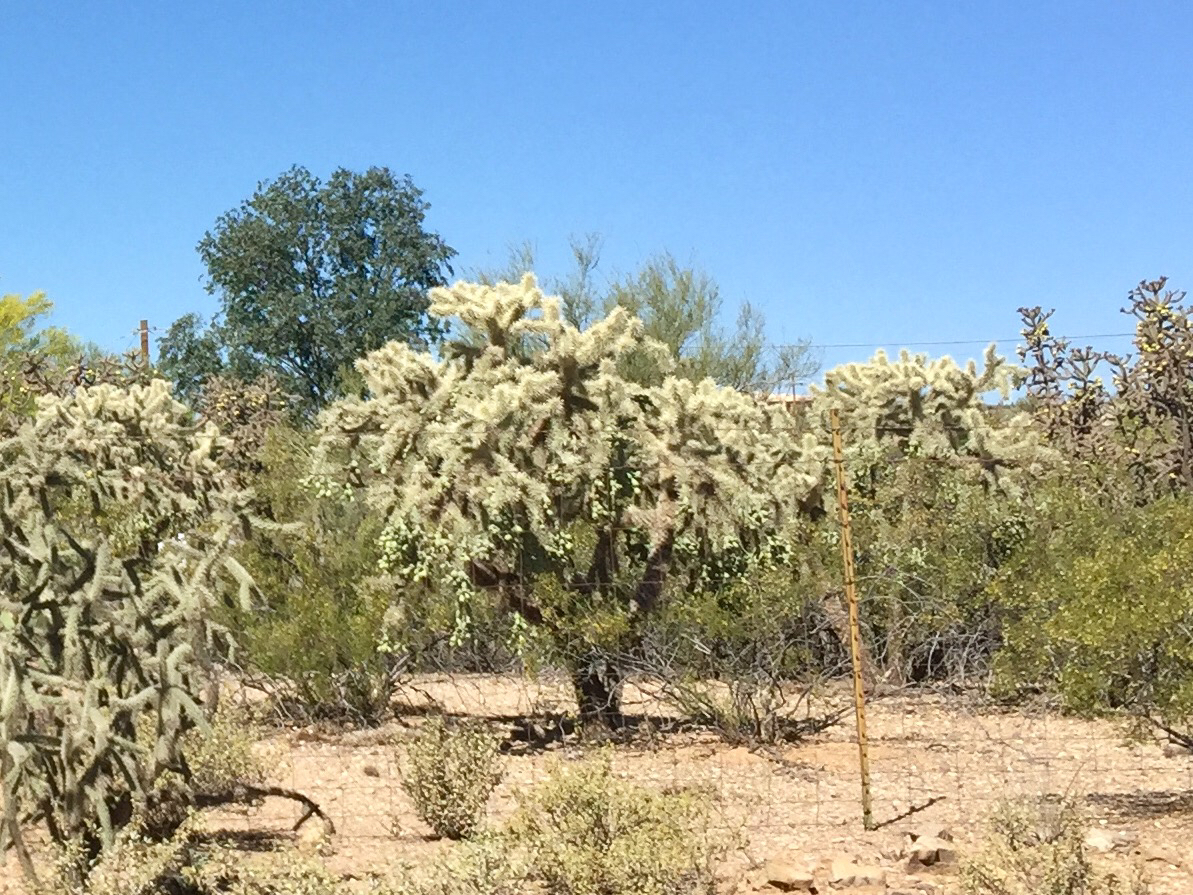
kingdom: Plantae
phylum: Tracheophyta
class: Magnoliopsida
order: Caryophyllales
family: Cactaceae
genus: Cylindropuntia
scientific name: Cylindropuntia fulgida
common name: Jumping cholla
